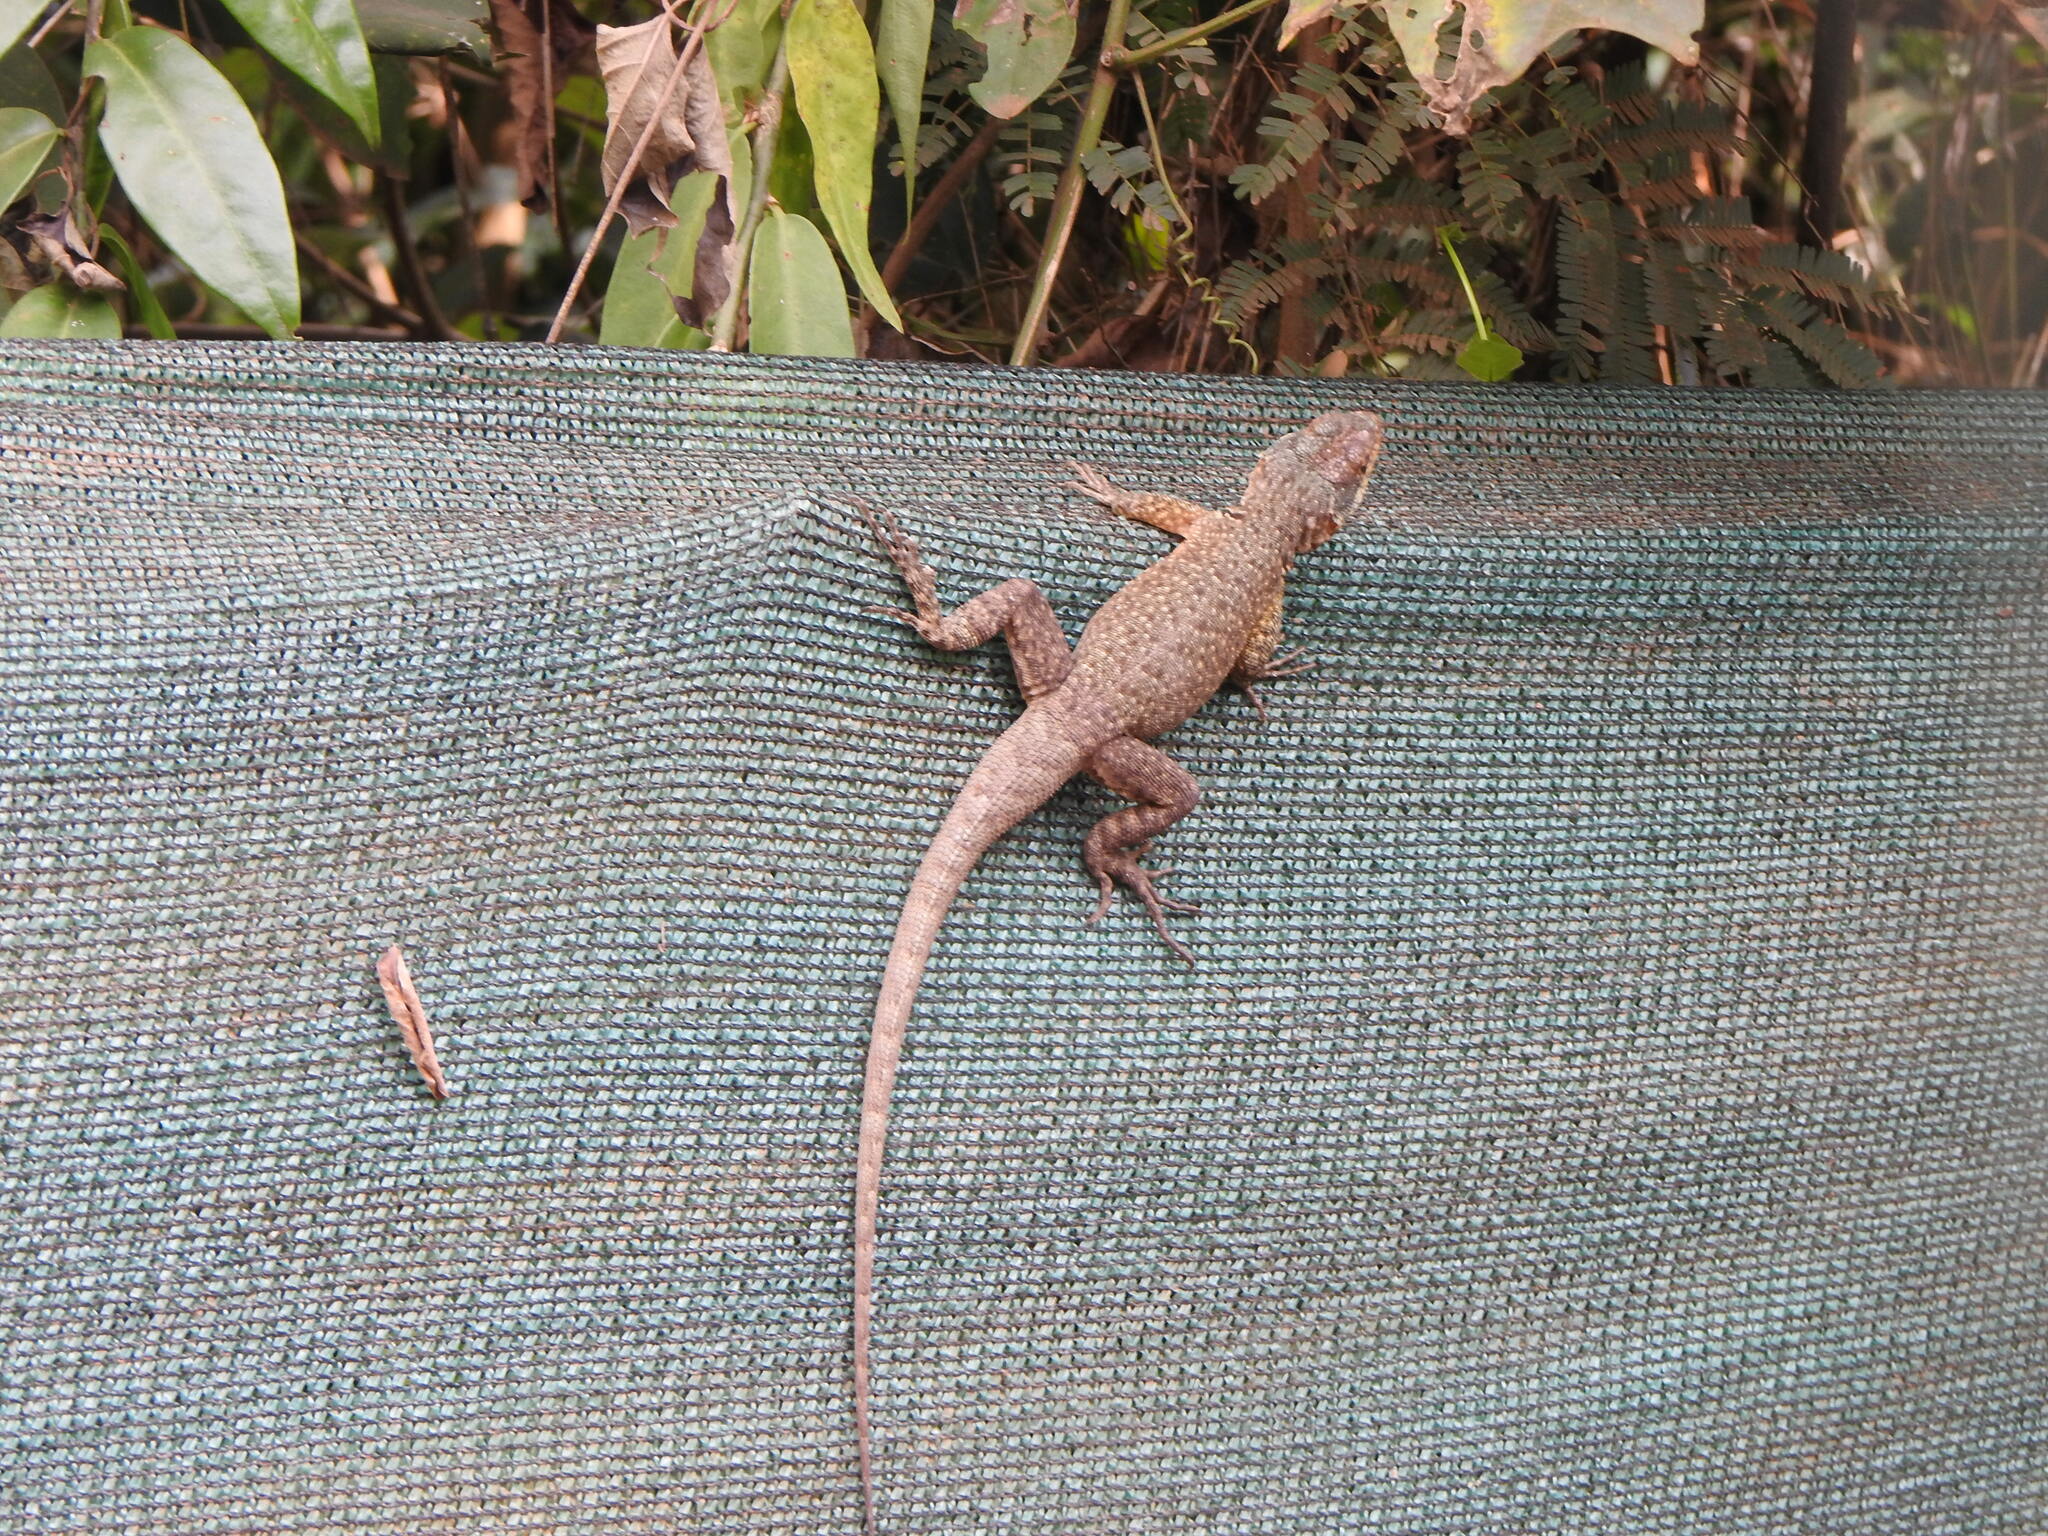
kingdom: Animalia
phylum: Chordata
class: Squamata
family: Tropiduridae
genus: Tropidurus
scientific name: Tropidurus catalanensis
